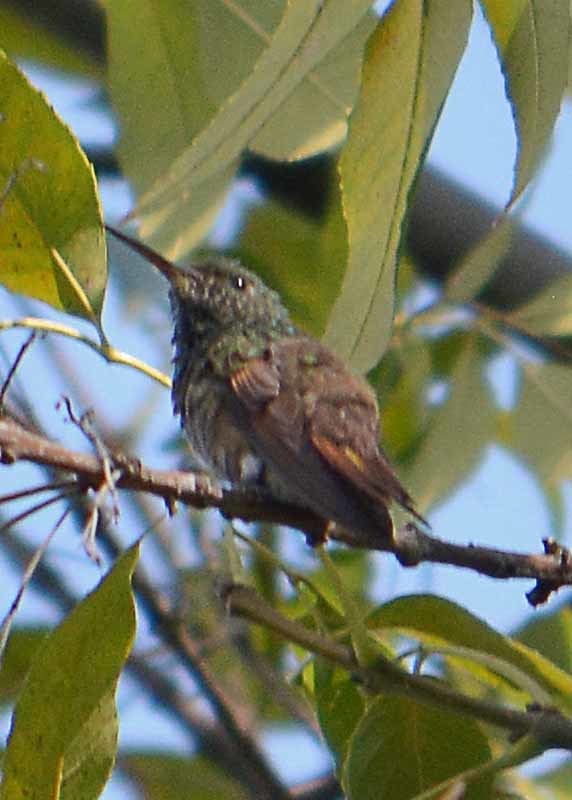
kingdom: Animalia
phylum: Chordata
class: Aves
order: Apodiformes
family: Trochilidae
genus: Saucerottia
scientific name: Saucerottia beryllina
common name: Berylline hummingbird
